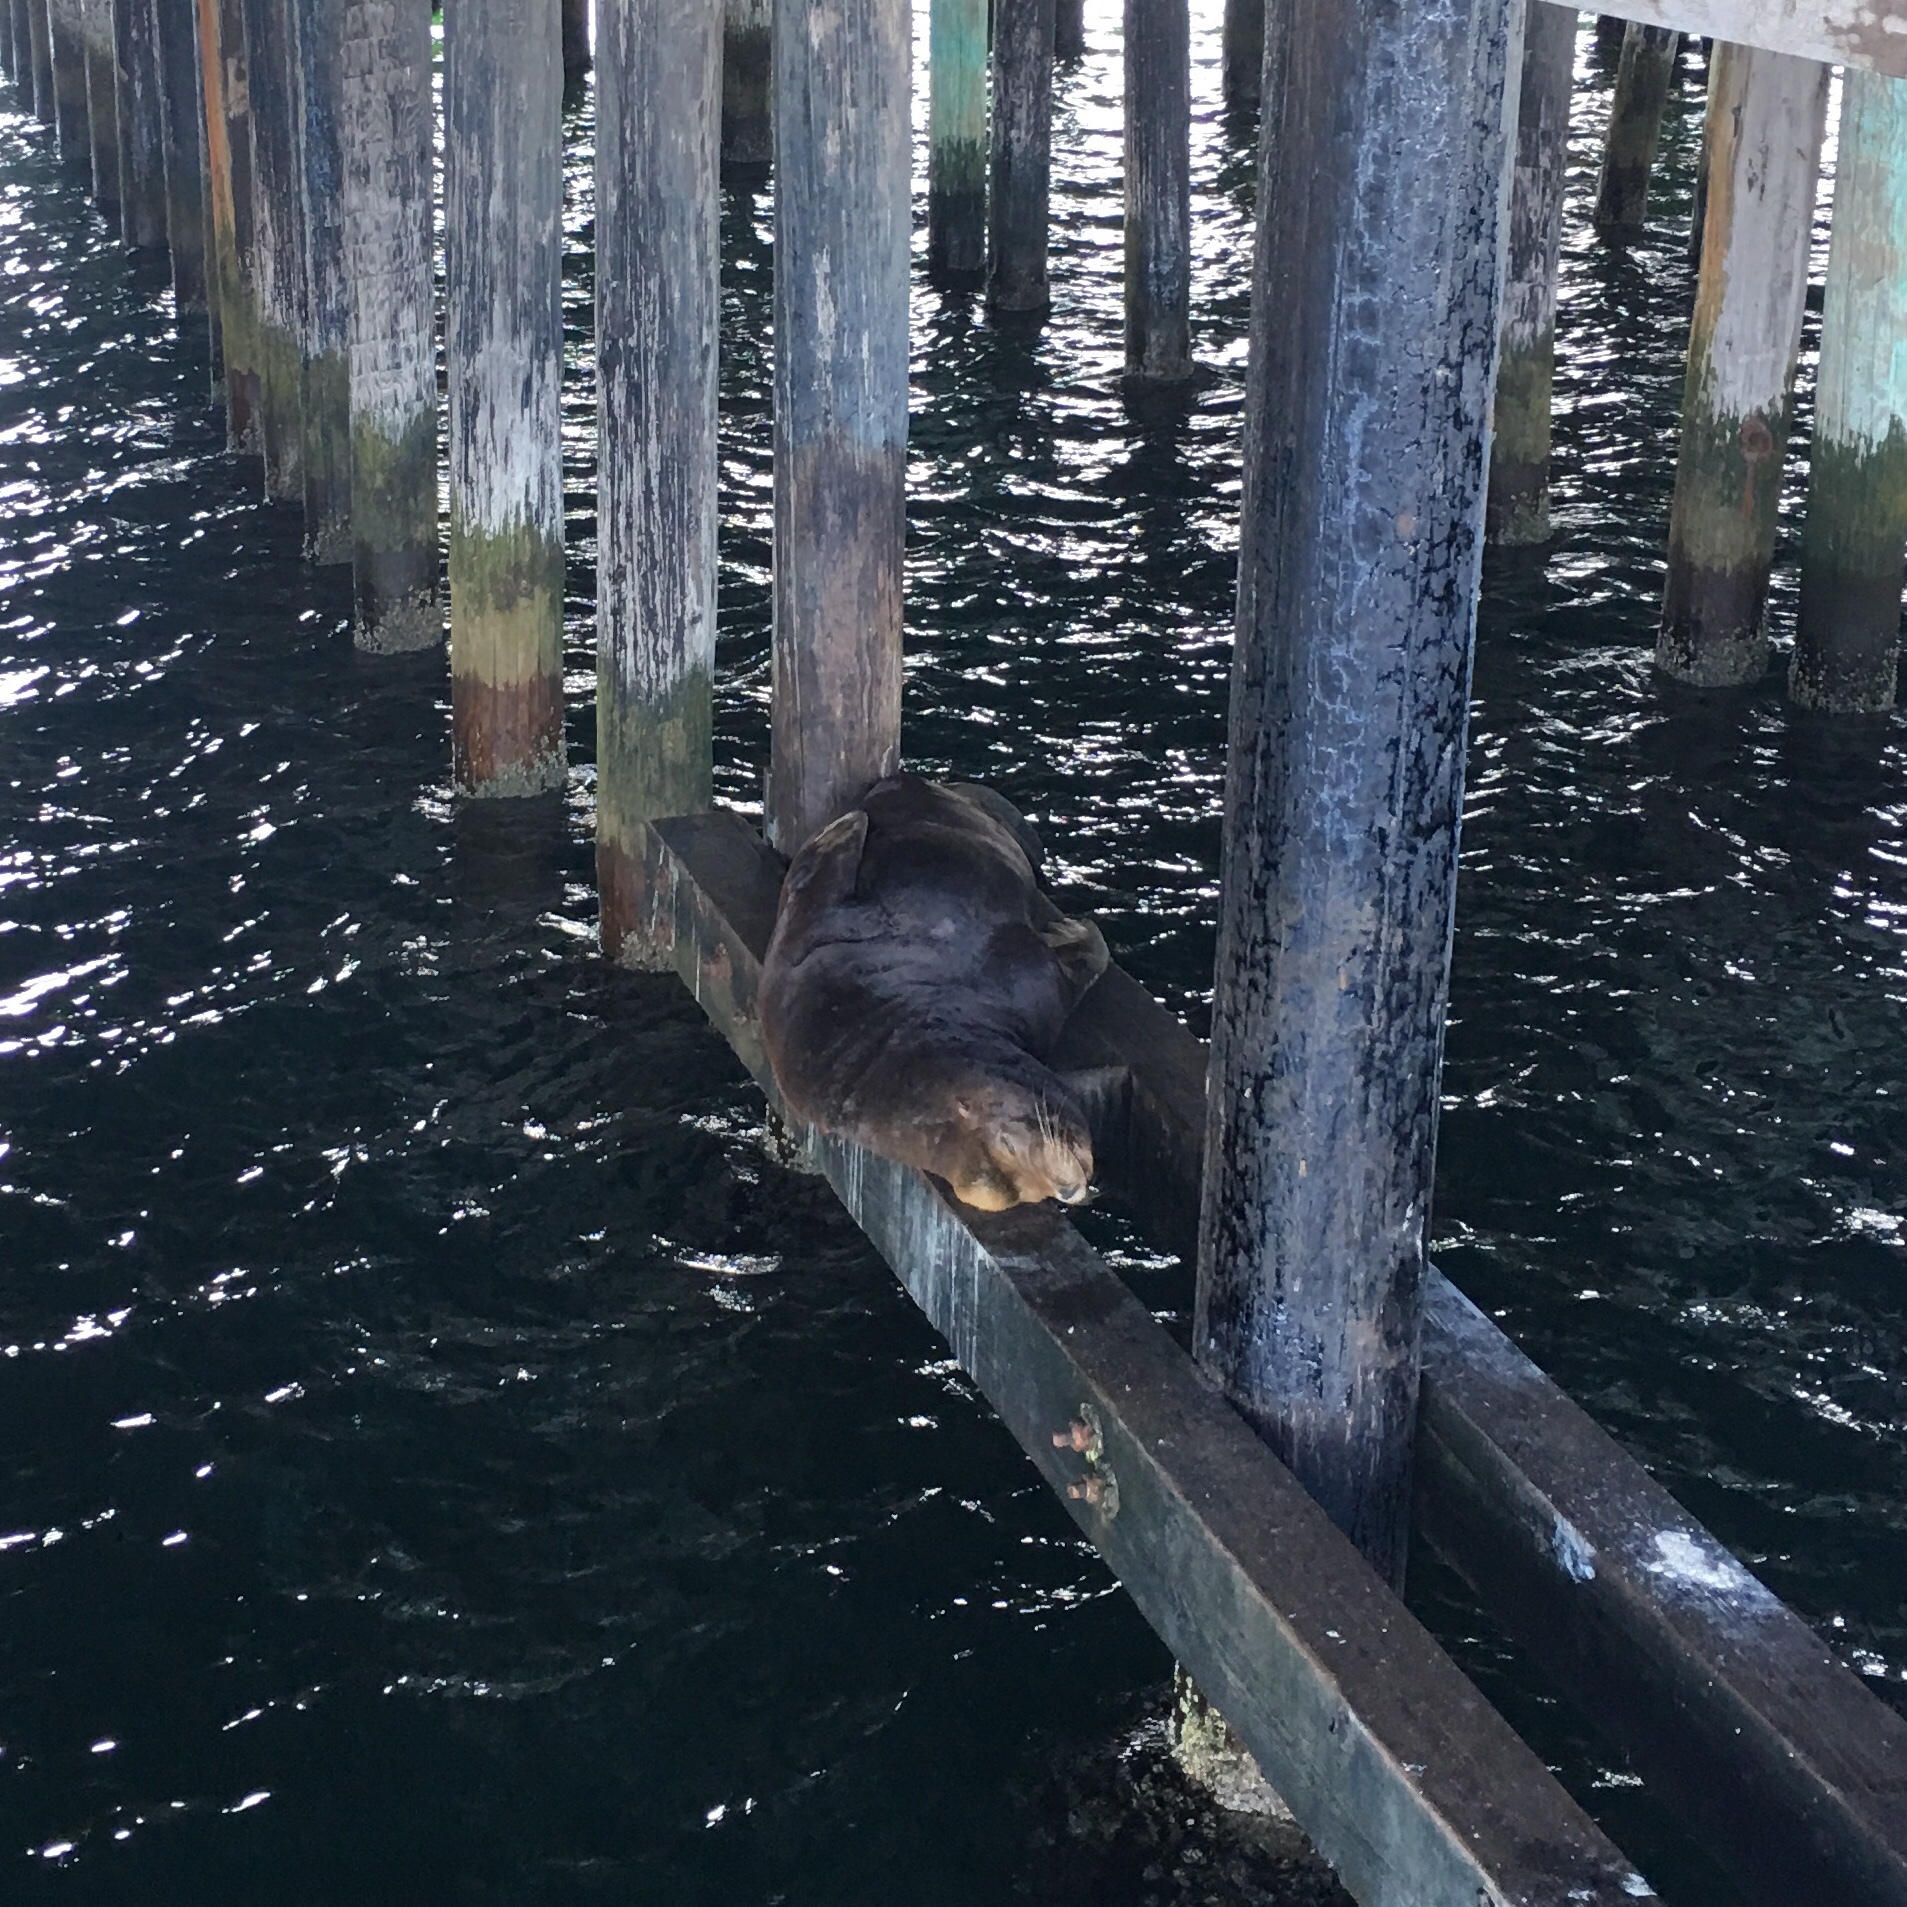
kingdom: Animalia
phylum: Chordata
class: Mammalia
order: Carnivora
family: Otariidae
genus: Zalophus
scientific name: Zalophus californianus
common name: California sea lion
